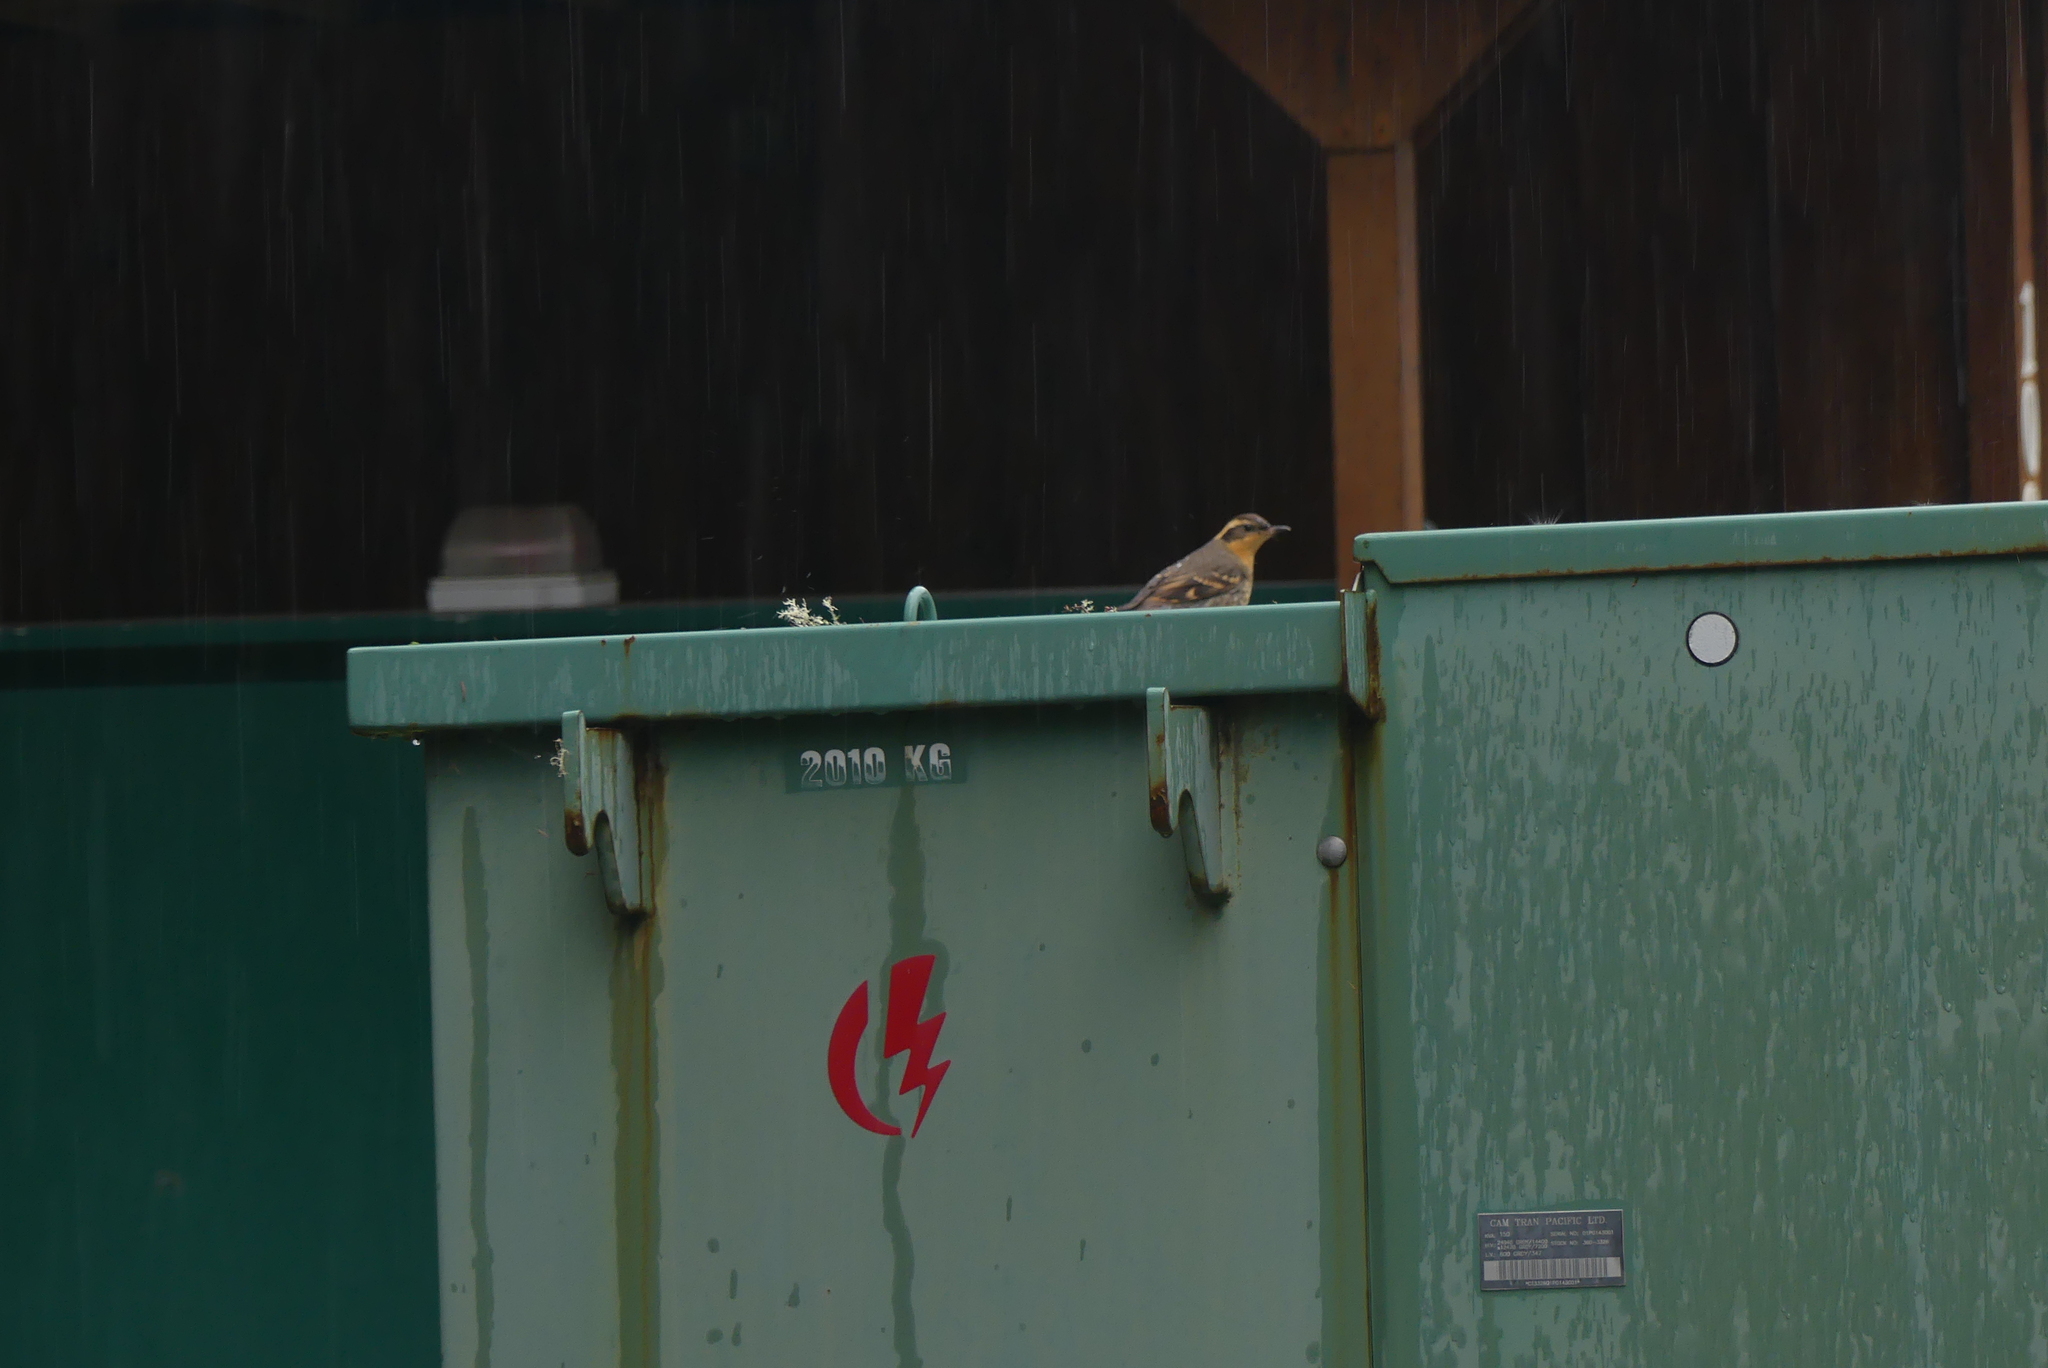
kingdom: Animalia
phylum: Chordata
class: Aves
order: Passeriformes
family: Turdidae
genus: Ixoreus
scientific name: Ixoreus naevius
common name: Varied thrush
